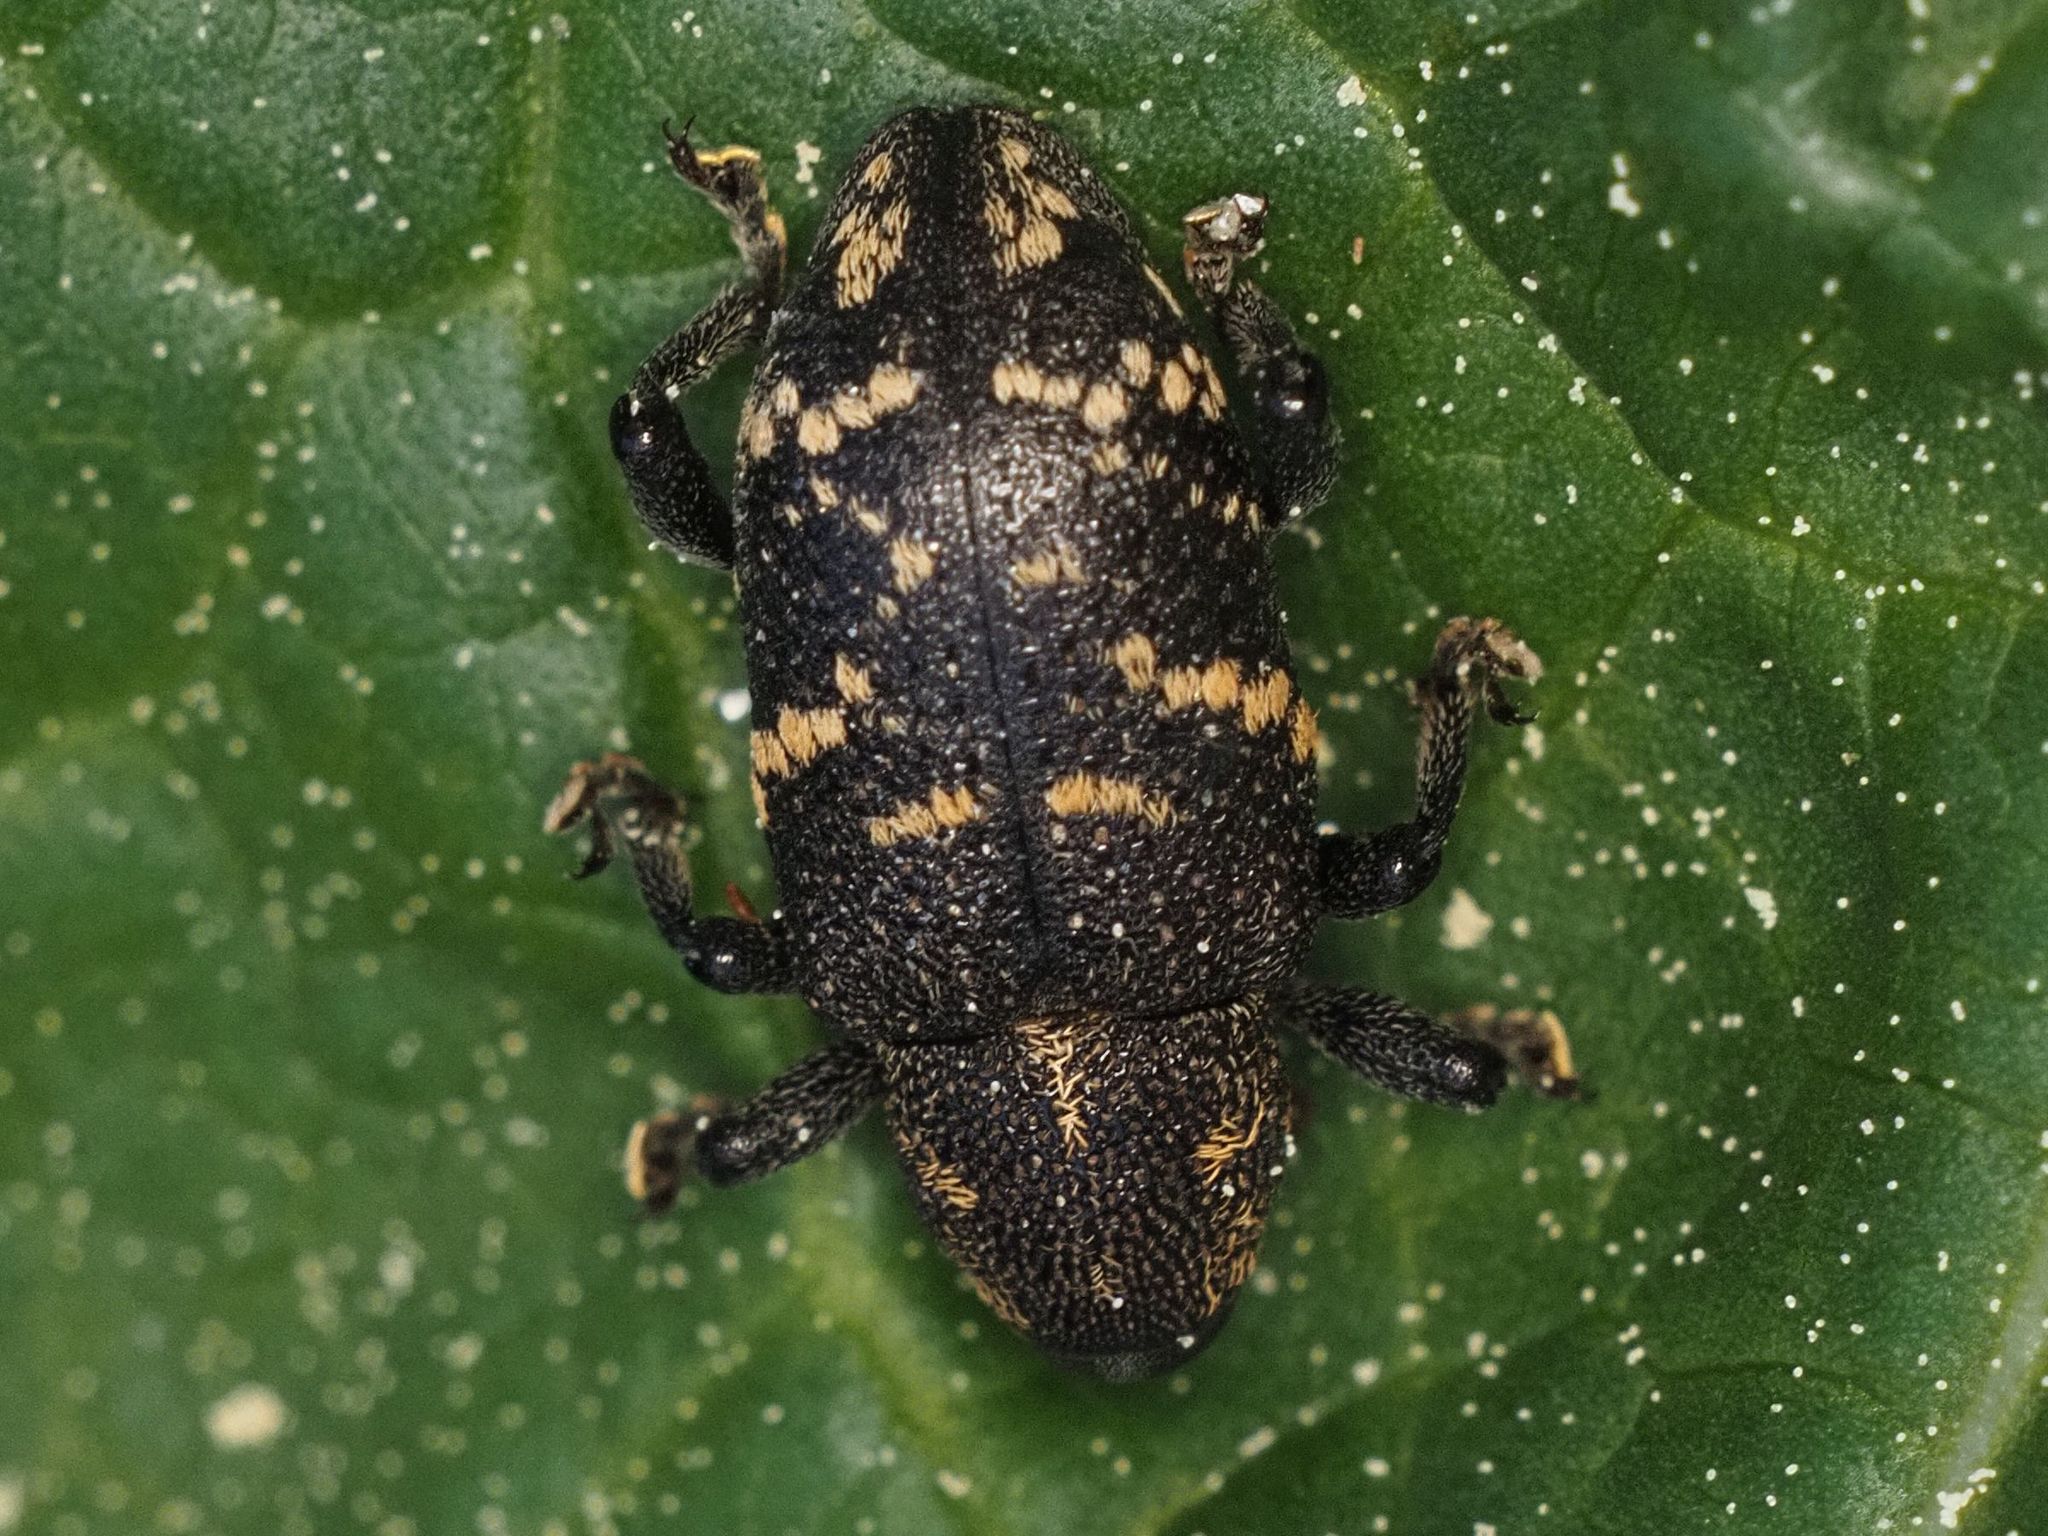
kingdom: Animalia
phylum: Arthropoda
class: Insecta
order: Coleoptera
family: Curculionidae
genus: Hylobius
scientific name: Hylobius abietis
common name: Large pine weevil
